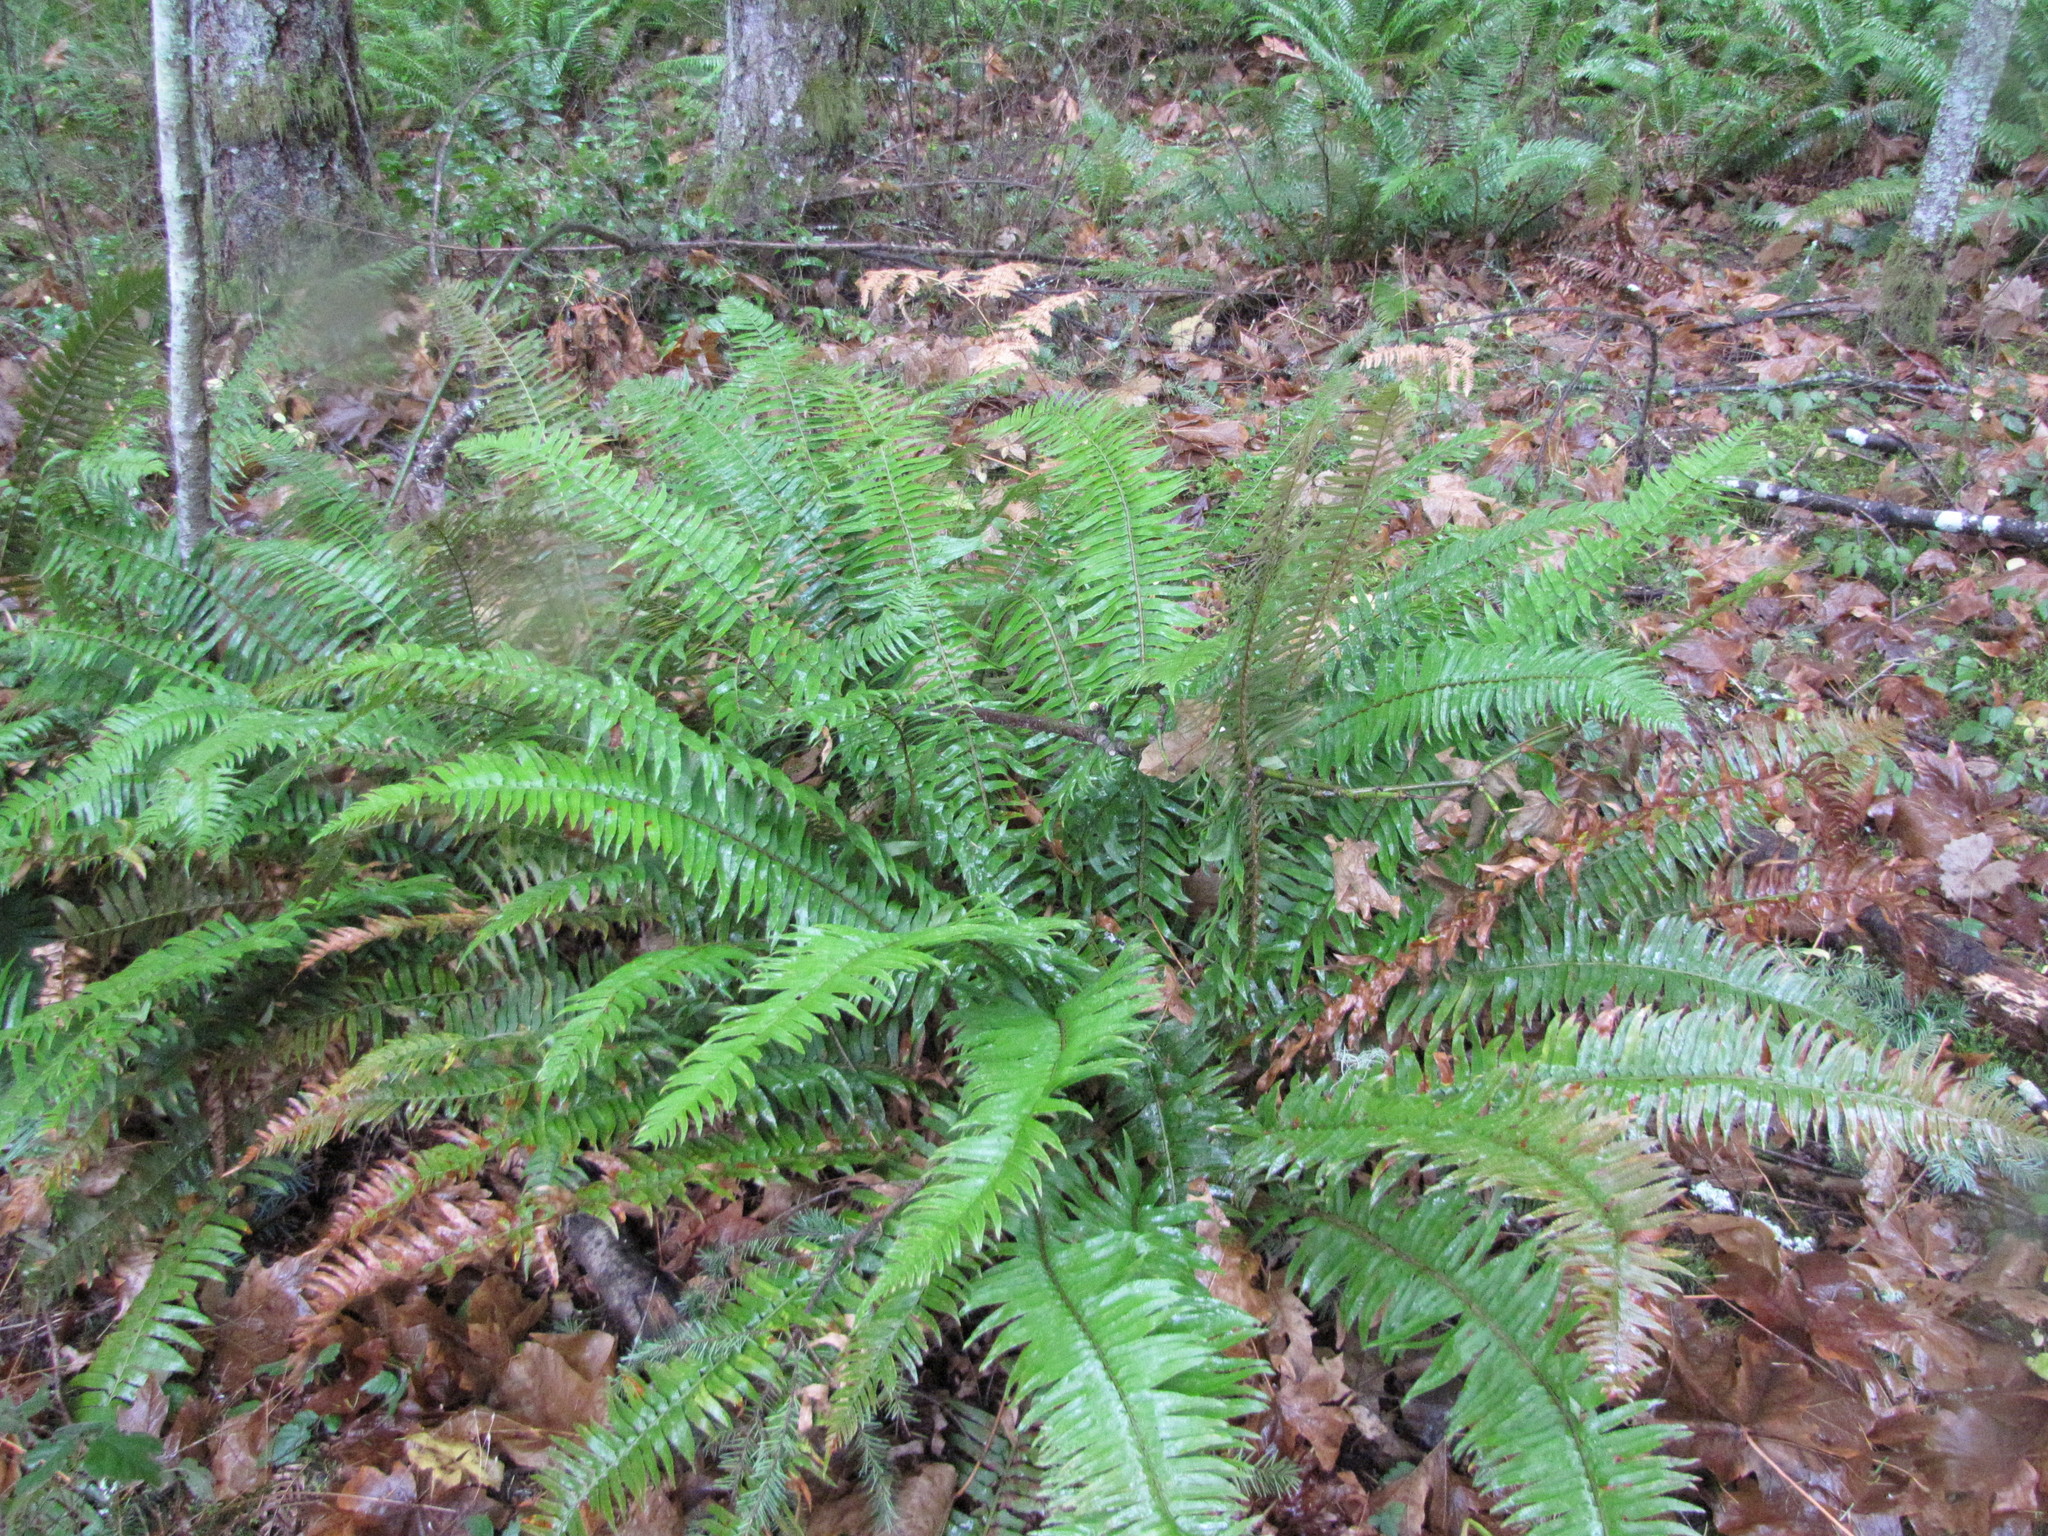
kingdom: Plantae
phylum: Tracheophyta
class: Polypodiopsida
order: Polypodiales
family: Dryopteridaceae
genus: Polystichum
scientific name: Polystichum munitum
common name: Western sword-fern
